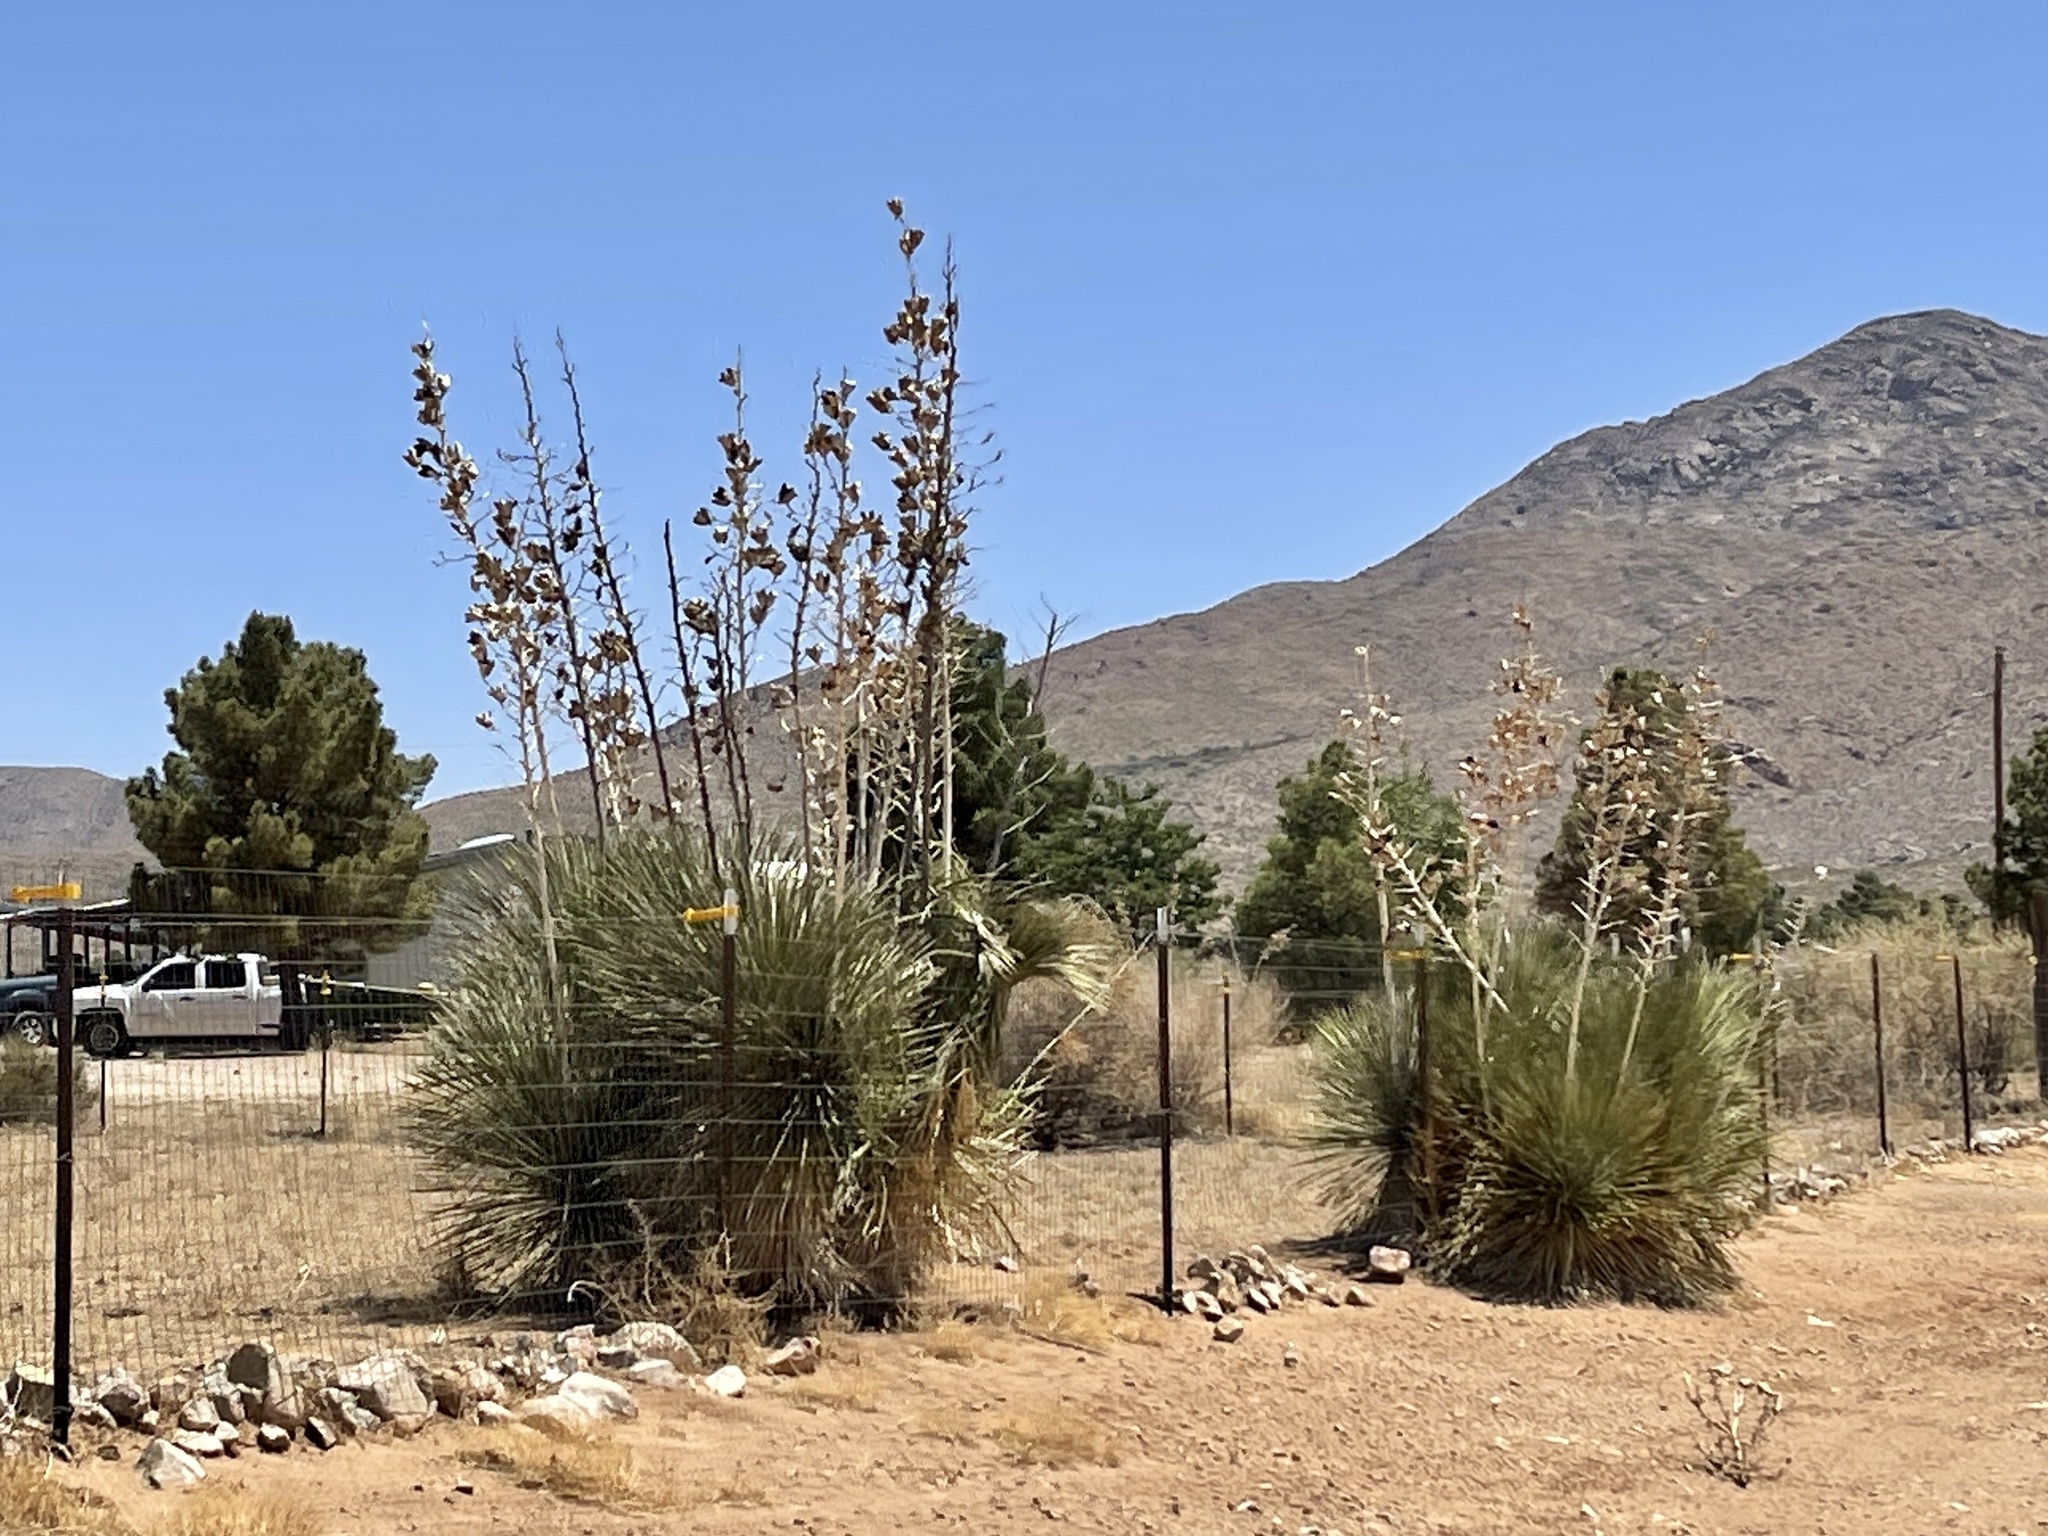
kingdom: Plantae
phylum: Tracheophyta
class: Liliopsida
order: Asparagales
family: Asparagaceae
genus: Yucca
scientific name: Yucca elata
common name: Palmella
